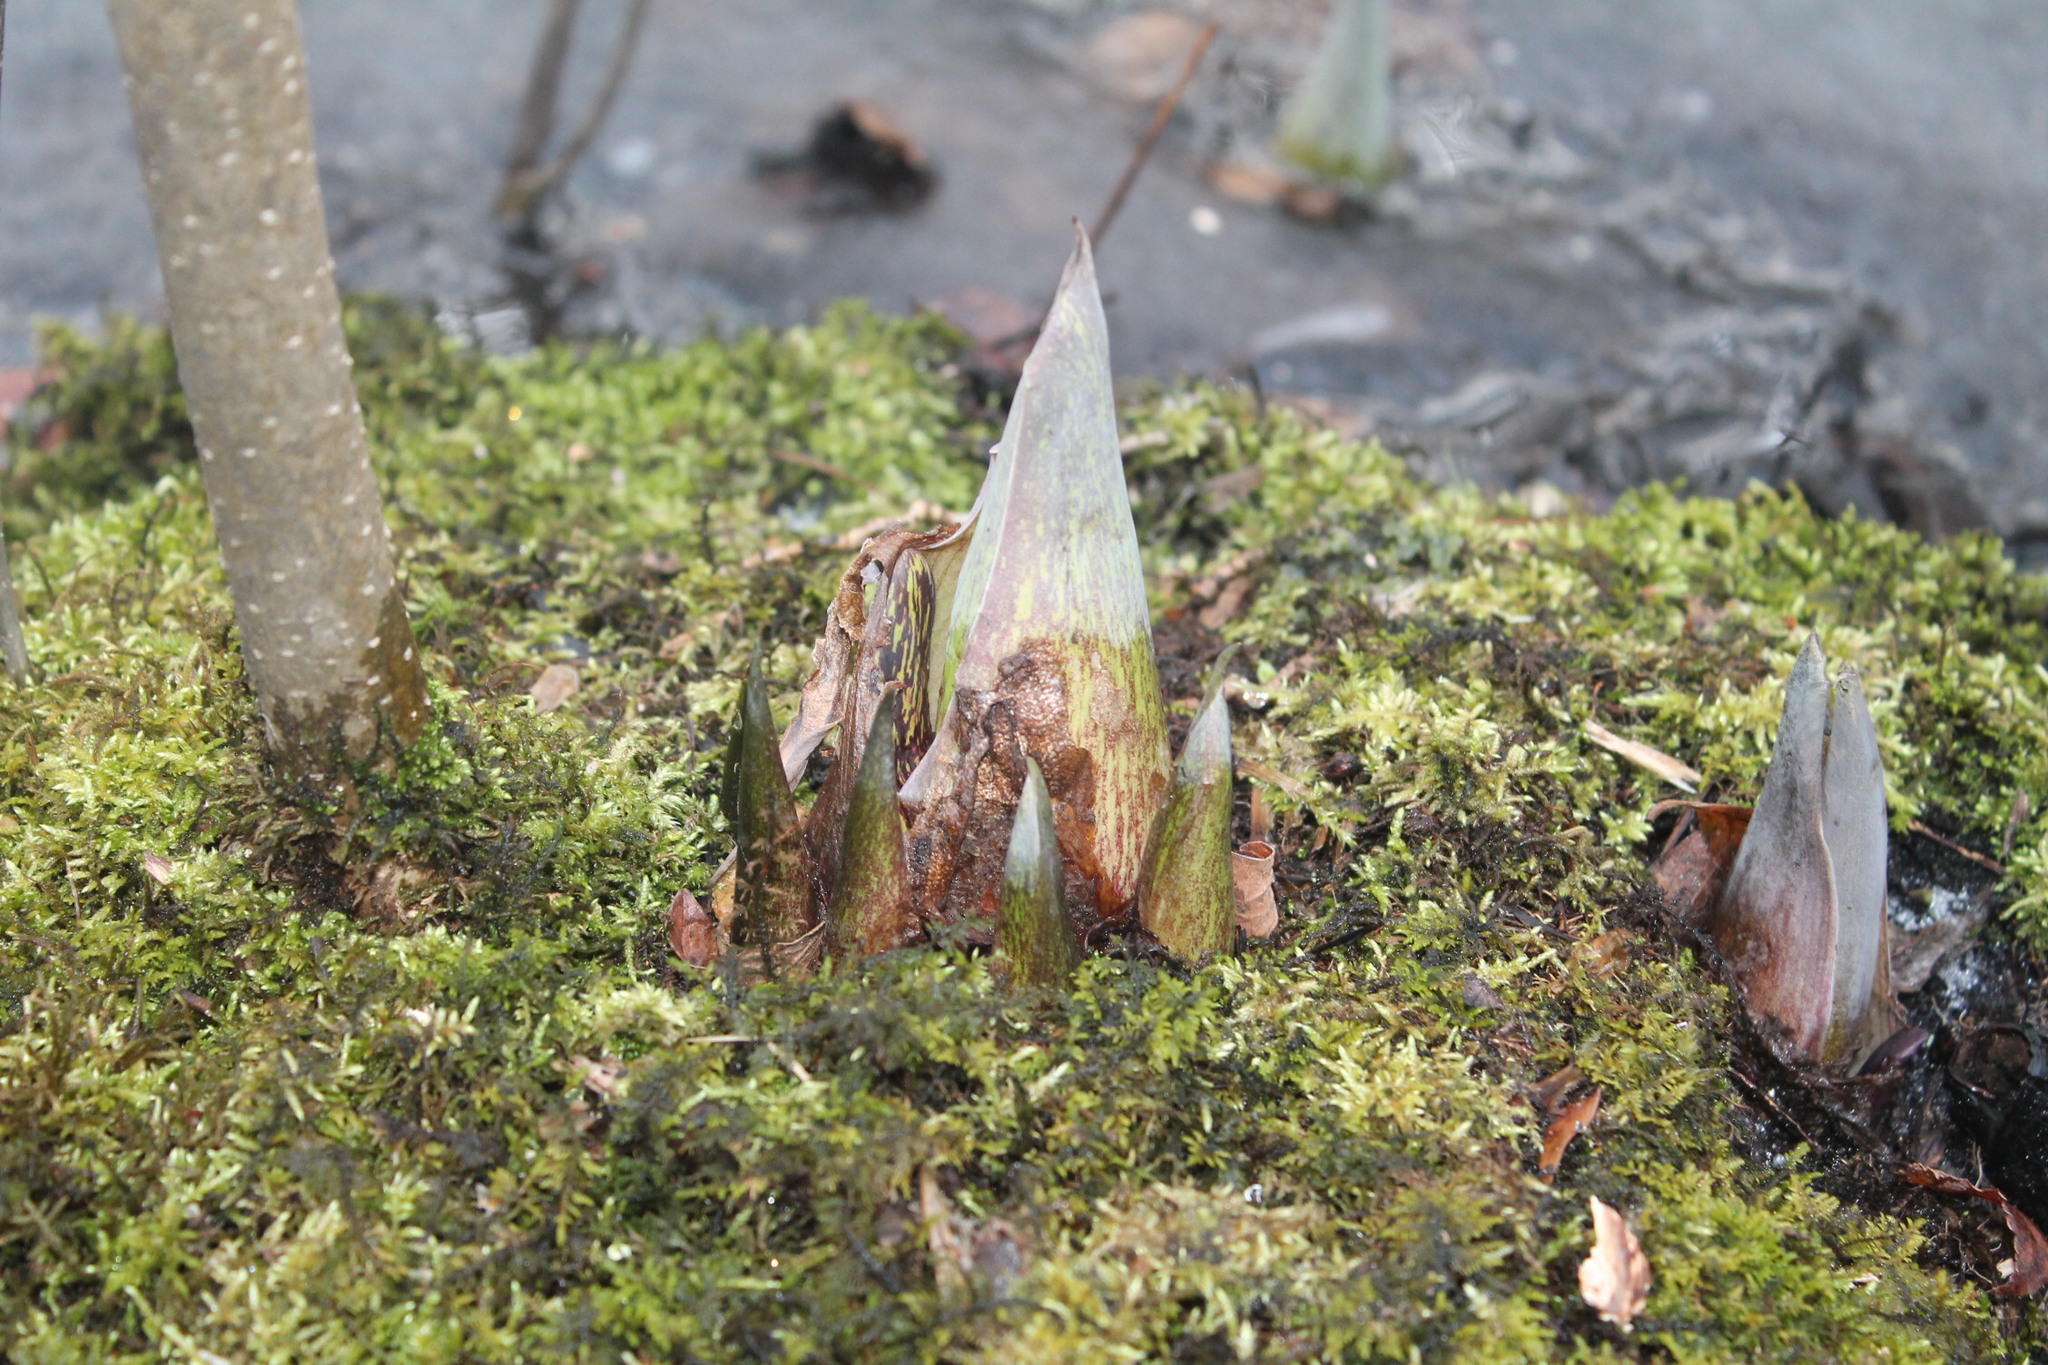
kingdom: Plantae
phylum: Tracheophyta
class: Liliopsida
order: Alismatales
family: Araceae
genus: Symplocarpus
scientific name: Symplocarpus foetidus
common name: Eastern skunk cabbage
